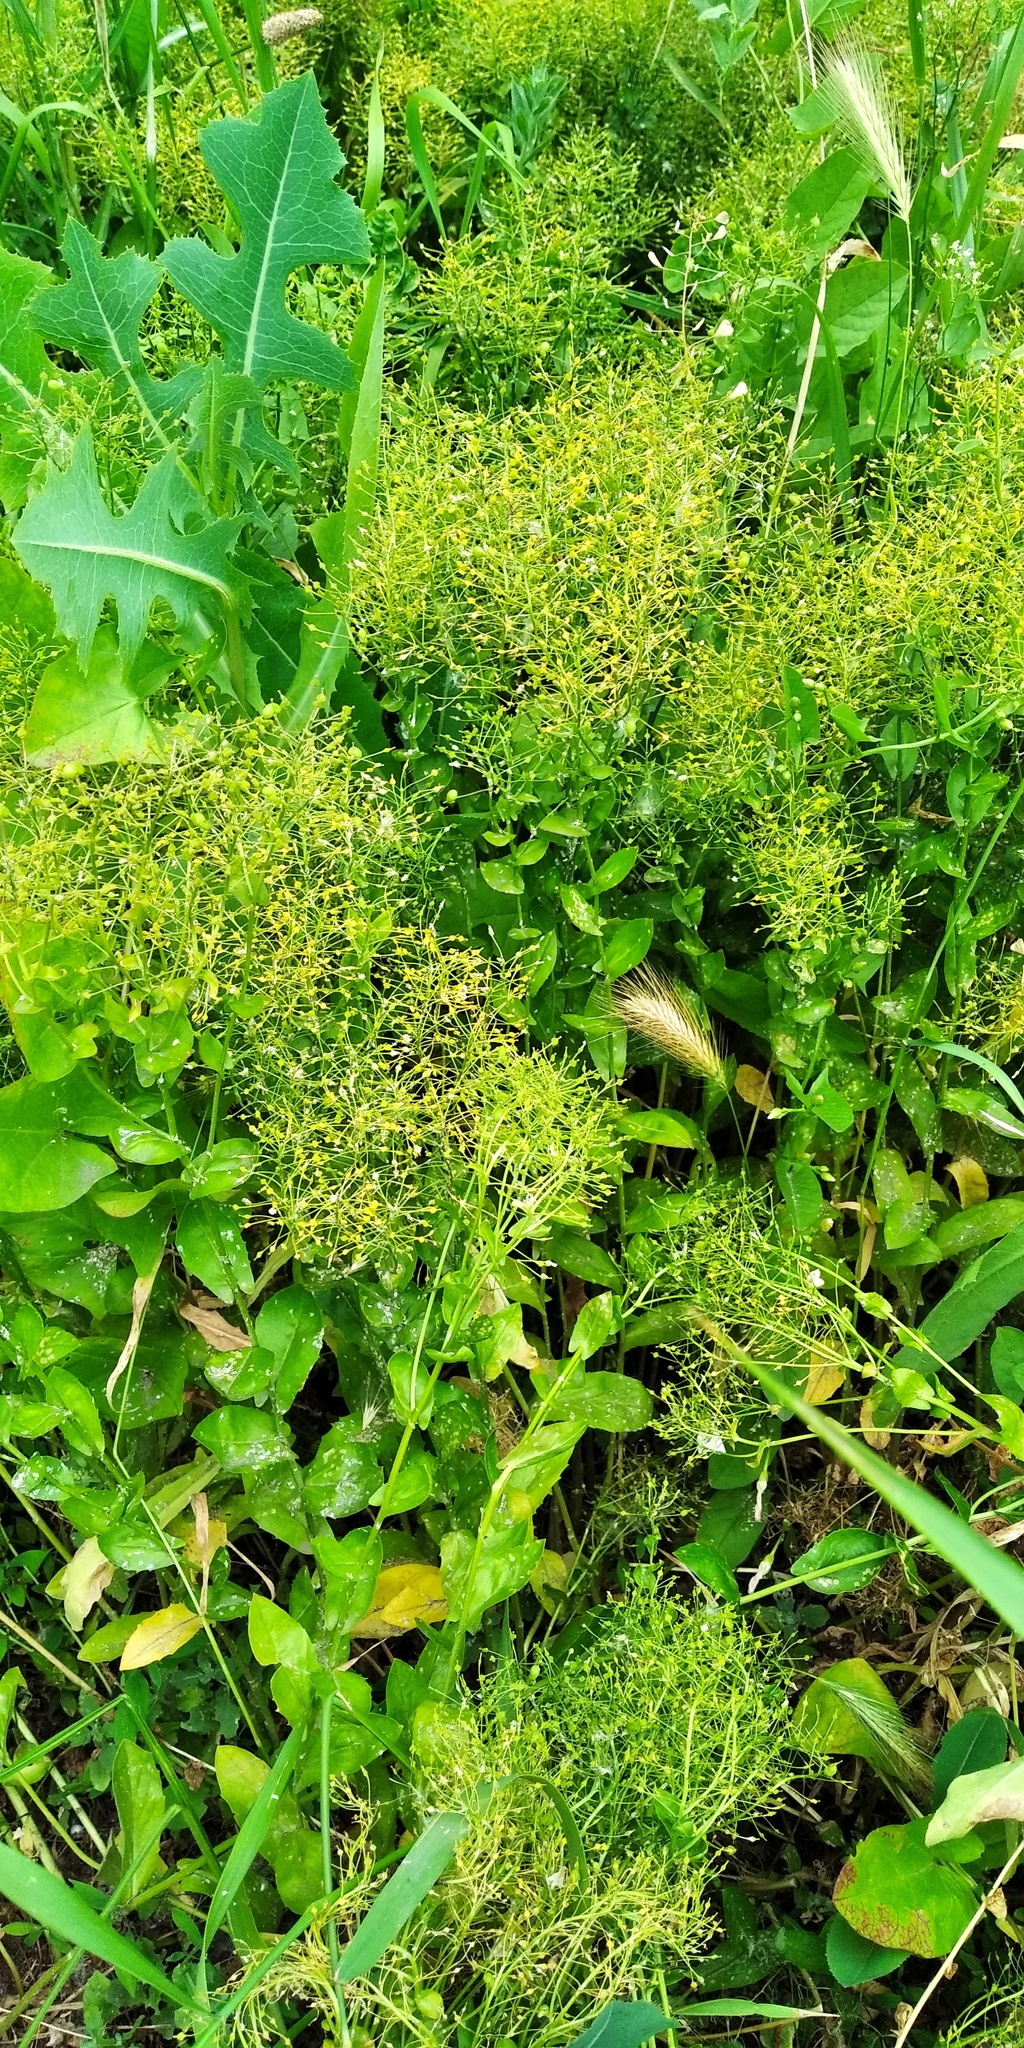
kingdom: Plantae
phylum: Tracheophyta
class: Magnoliopsida
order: Asterales
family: Asteraceae
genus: Tragopogon
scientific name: Tragopogon dubius
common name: Yellow salsify
